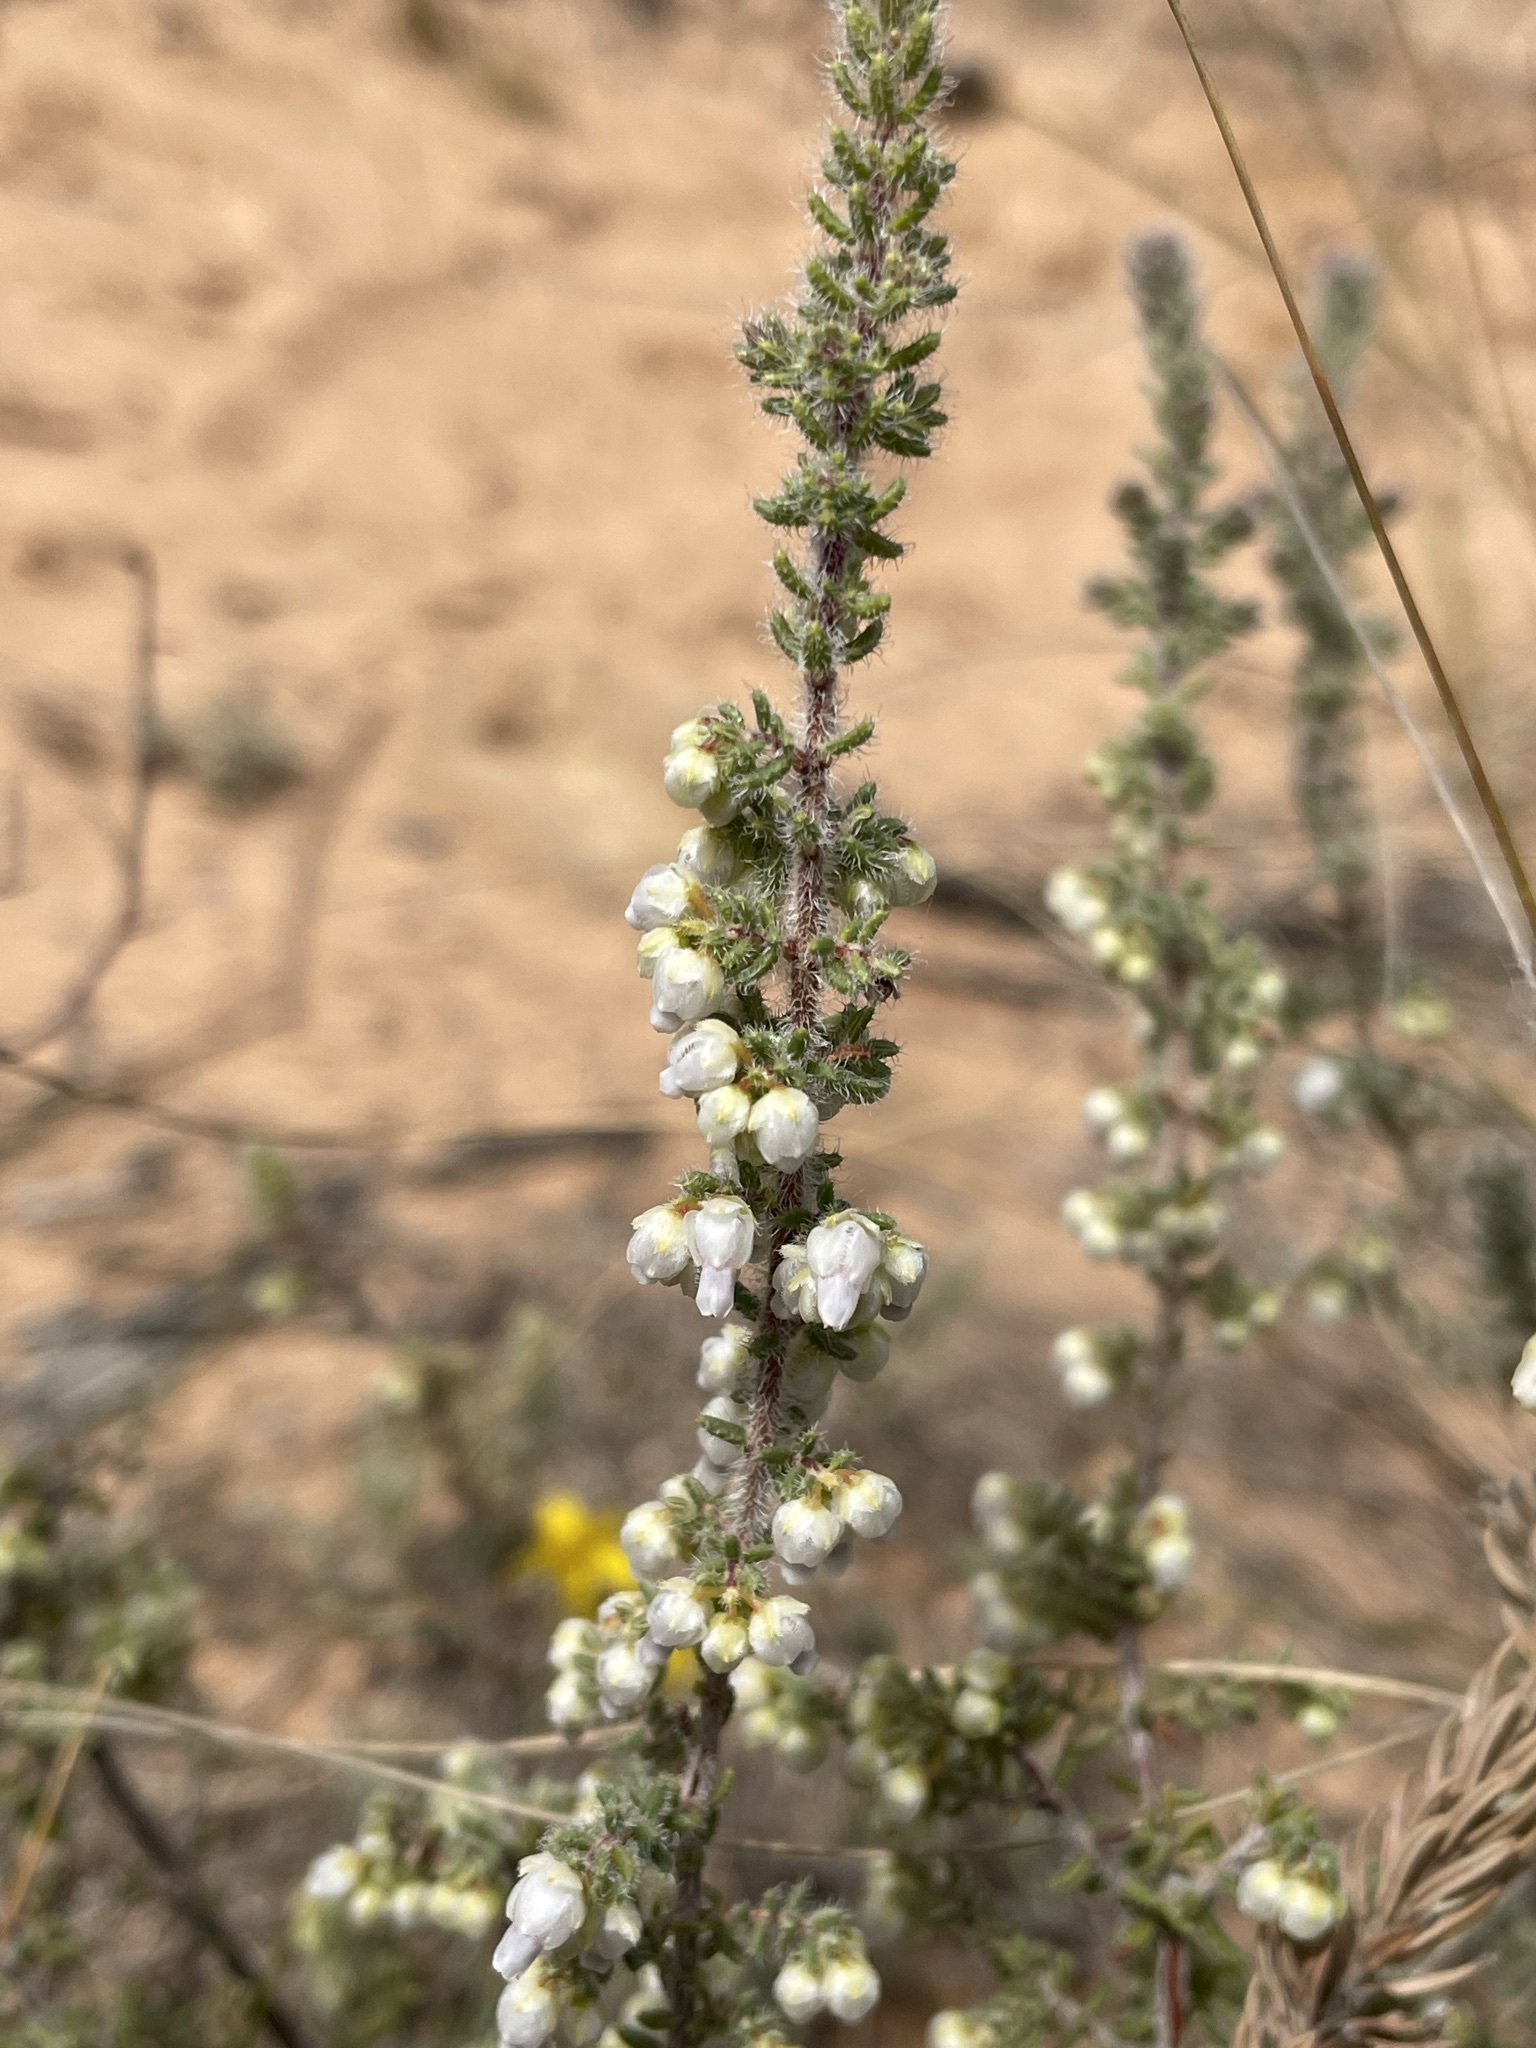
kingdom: Plantae
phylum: Tracheophyta
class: Magnoliopsida
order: Ericales
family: Ericaceae
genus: Erica
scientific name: Erica totta
